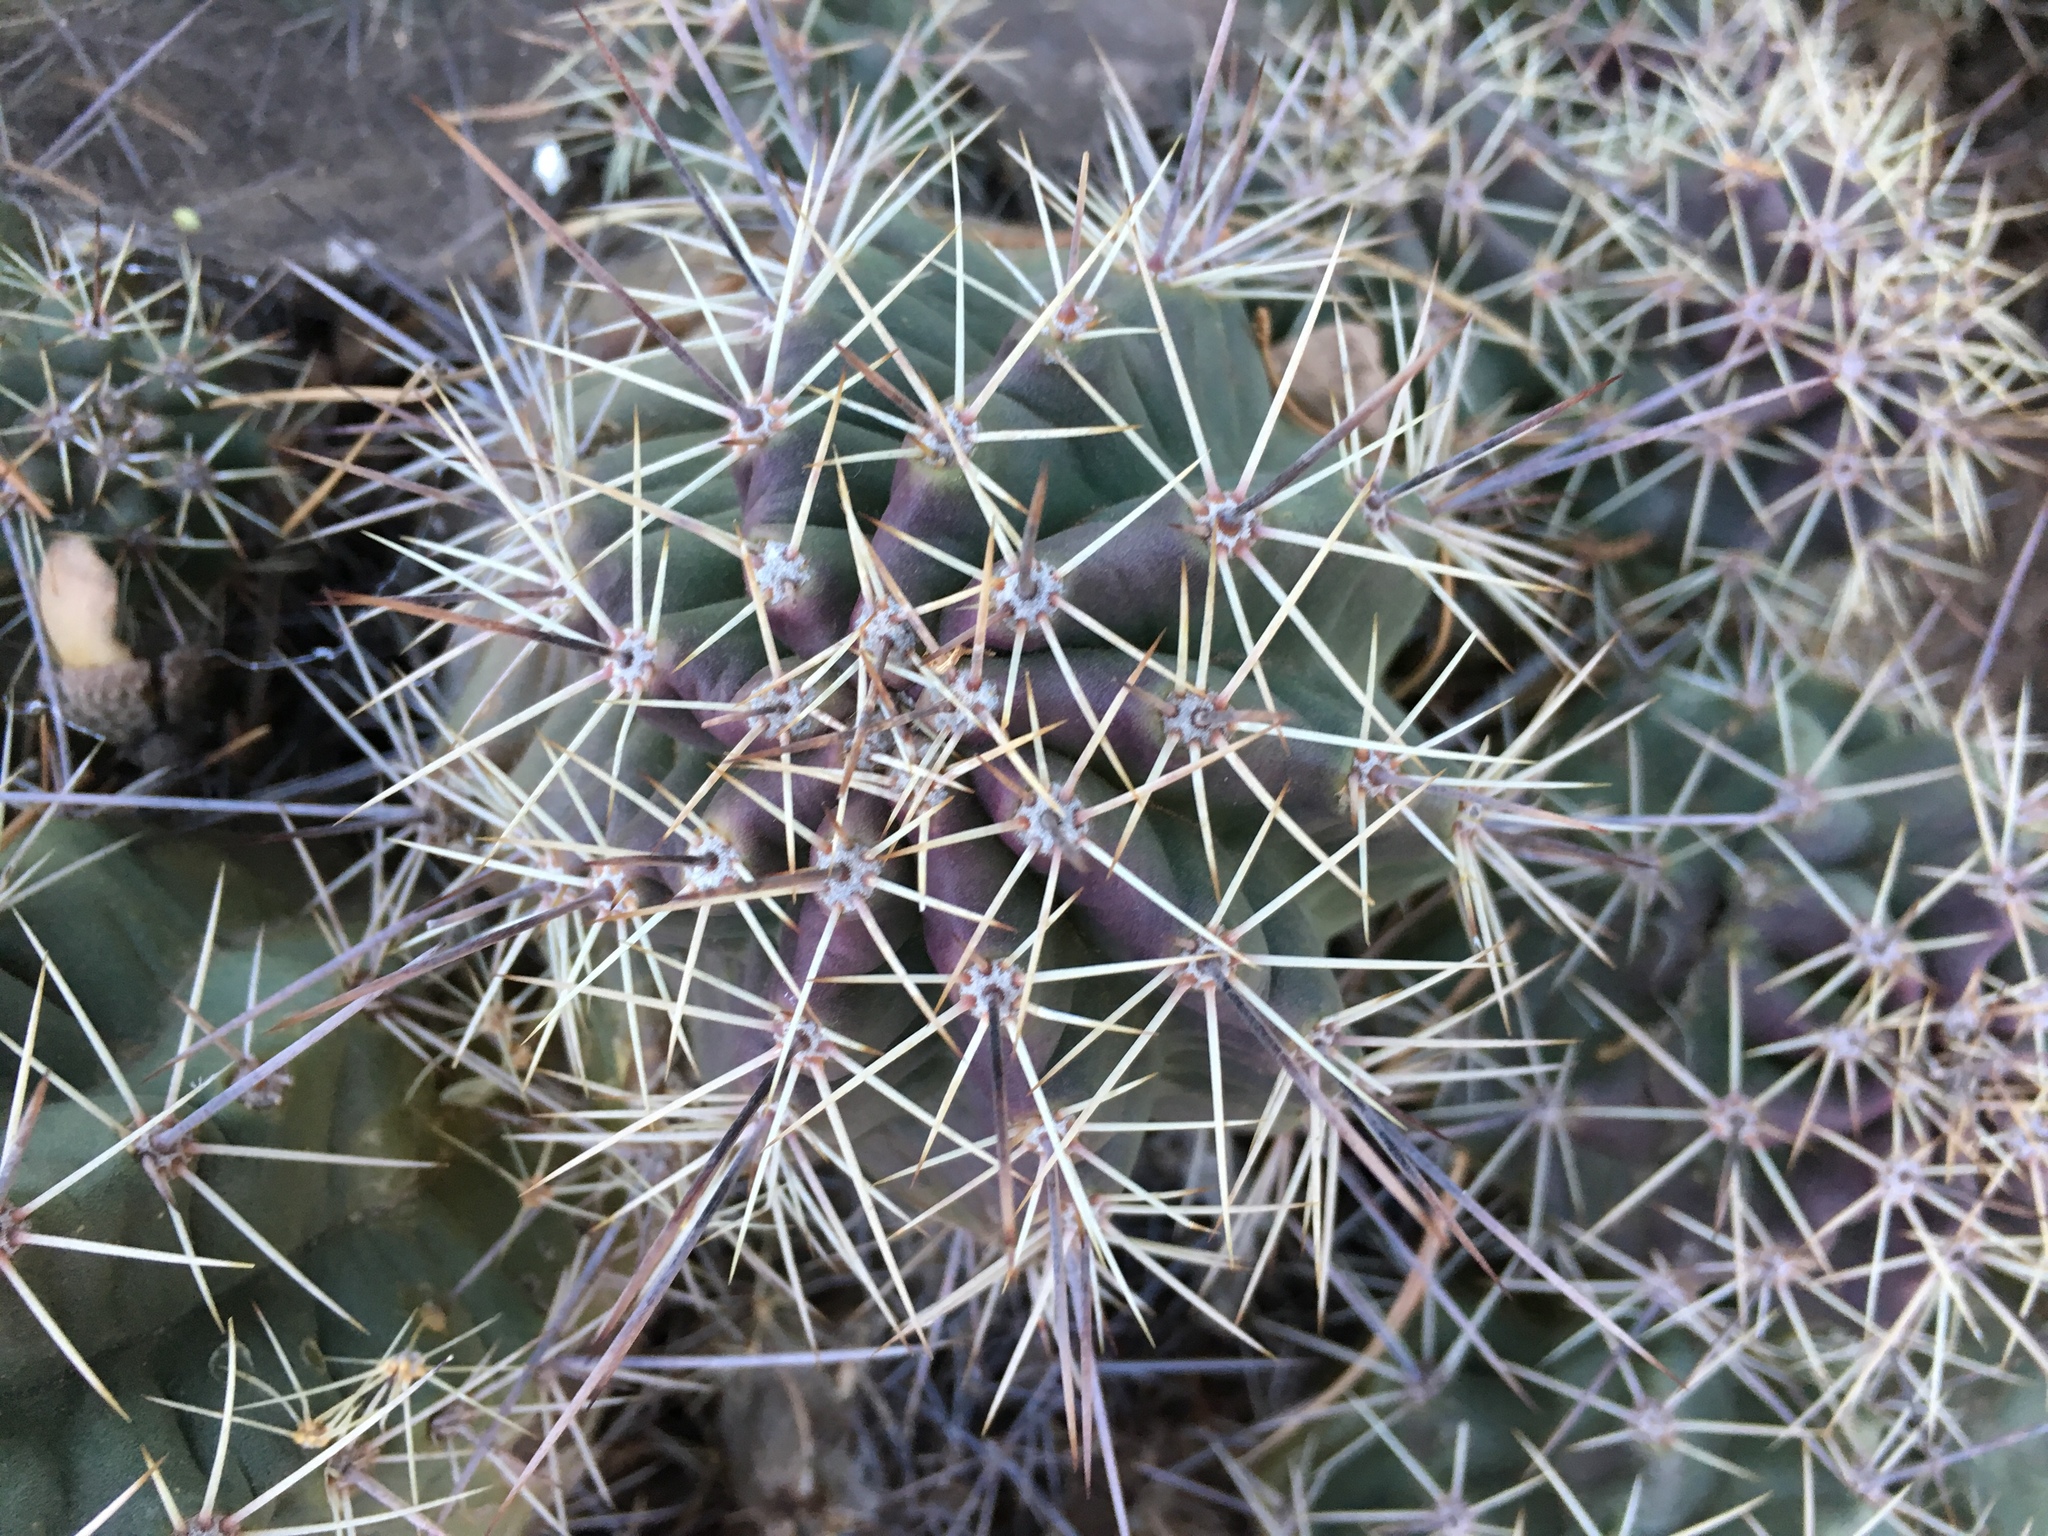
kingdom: Plantae
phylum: Tracheophyta
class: Magnoliopsida
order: Caryophyllales
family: Cactaceae
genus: Echinocereus
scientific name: Echinocereus coccineus
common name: Scarlet hedgehog cactus
